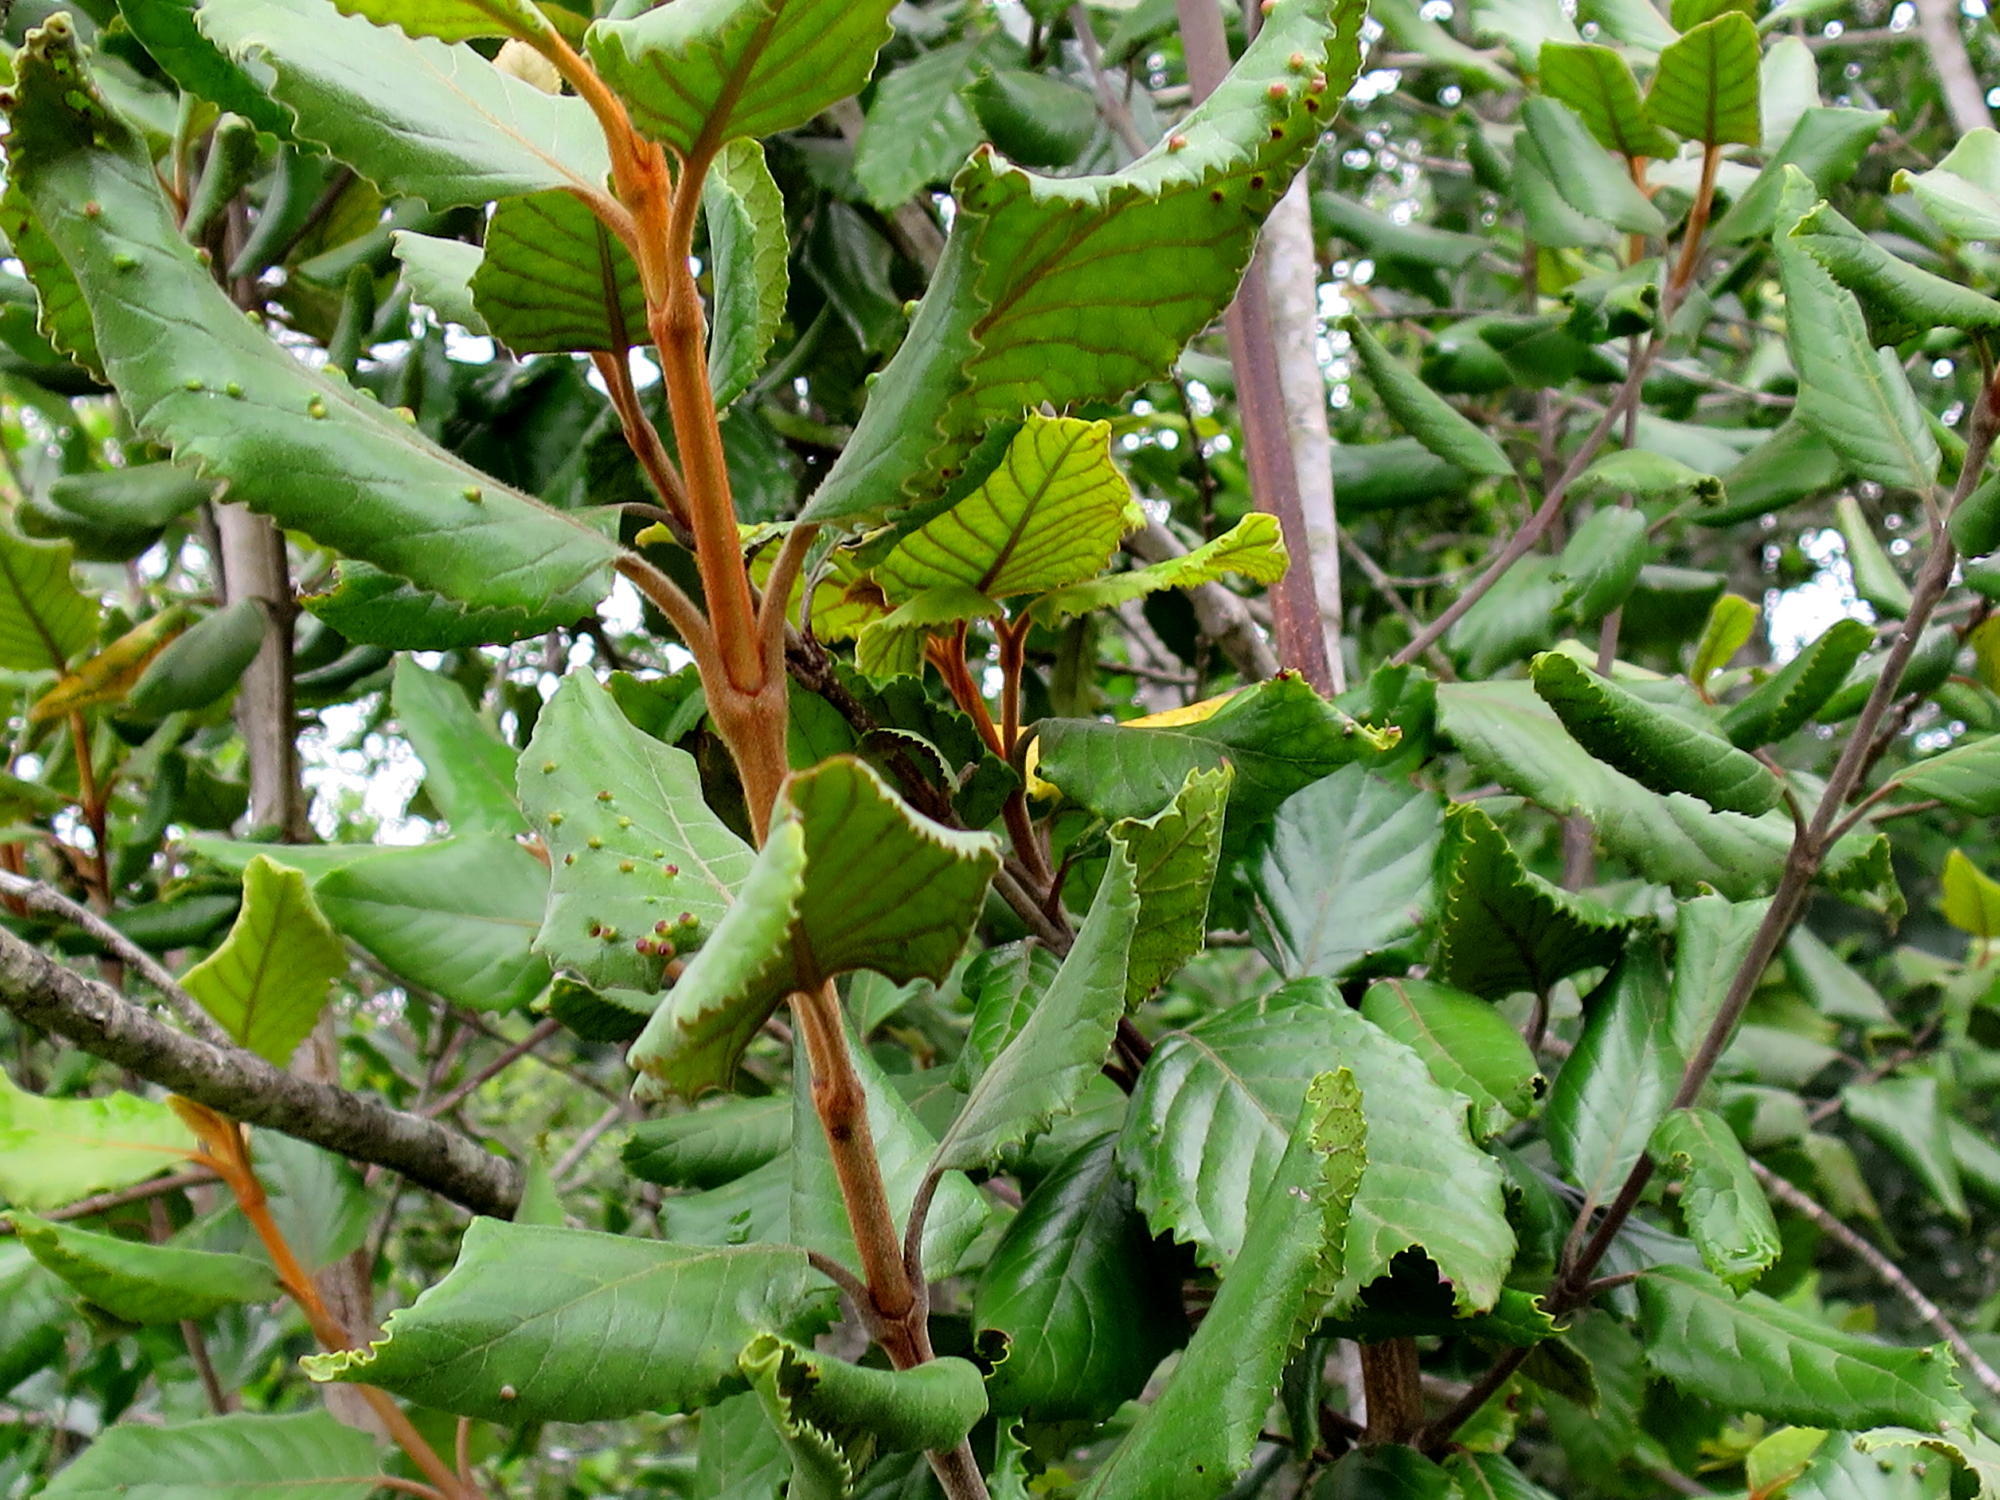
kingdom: Plantae
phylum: Tracheophyta
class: Magnoliopsida
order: Cornales
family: Curtisiaceae
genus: Curtisia
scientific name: Curtisia dentata
